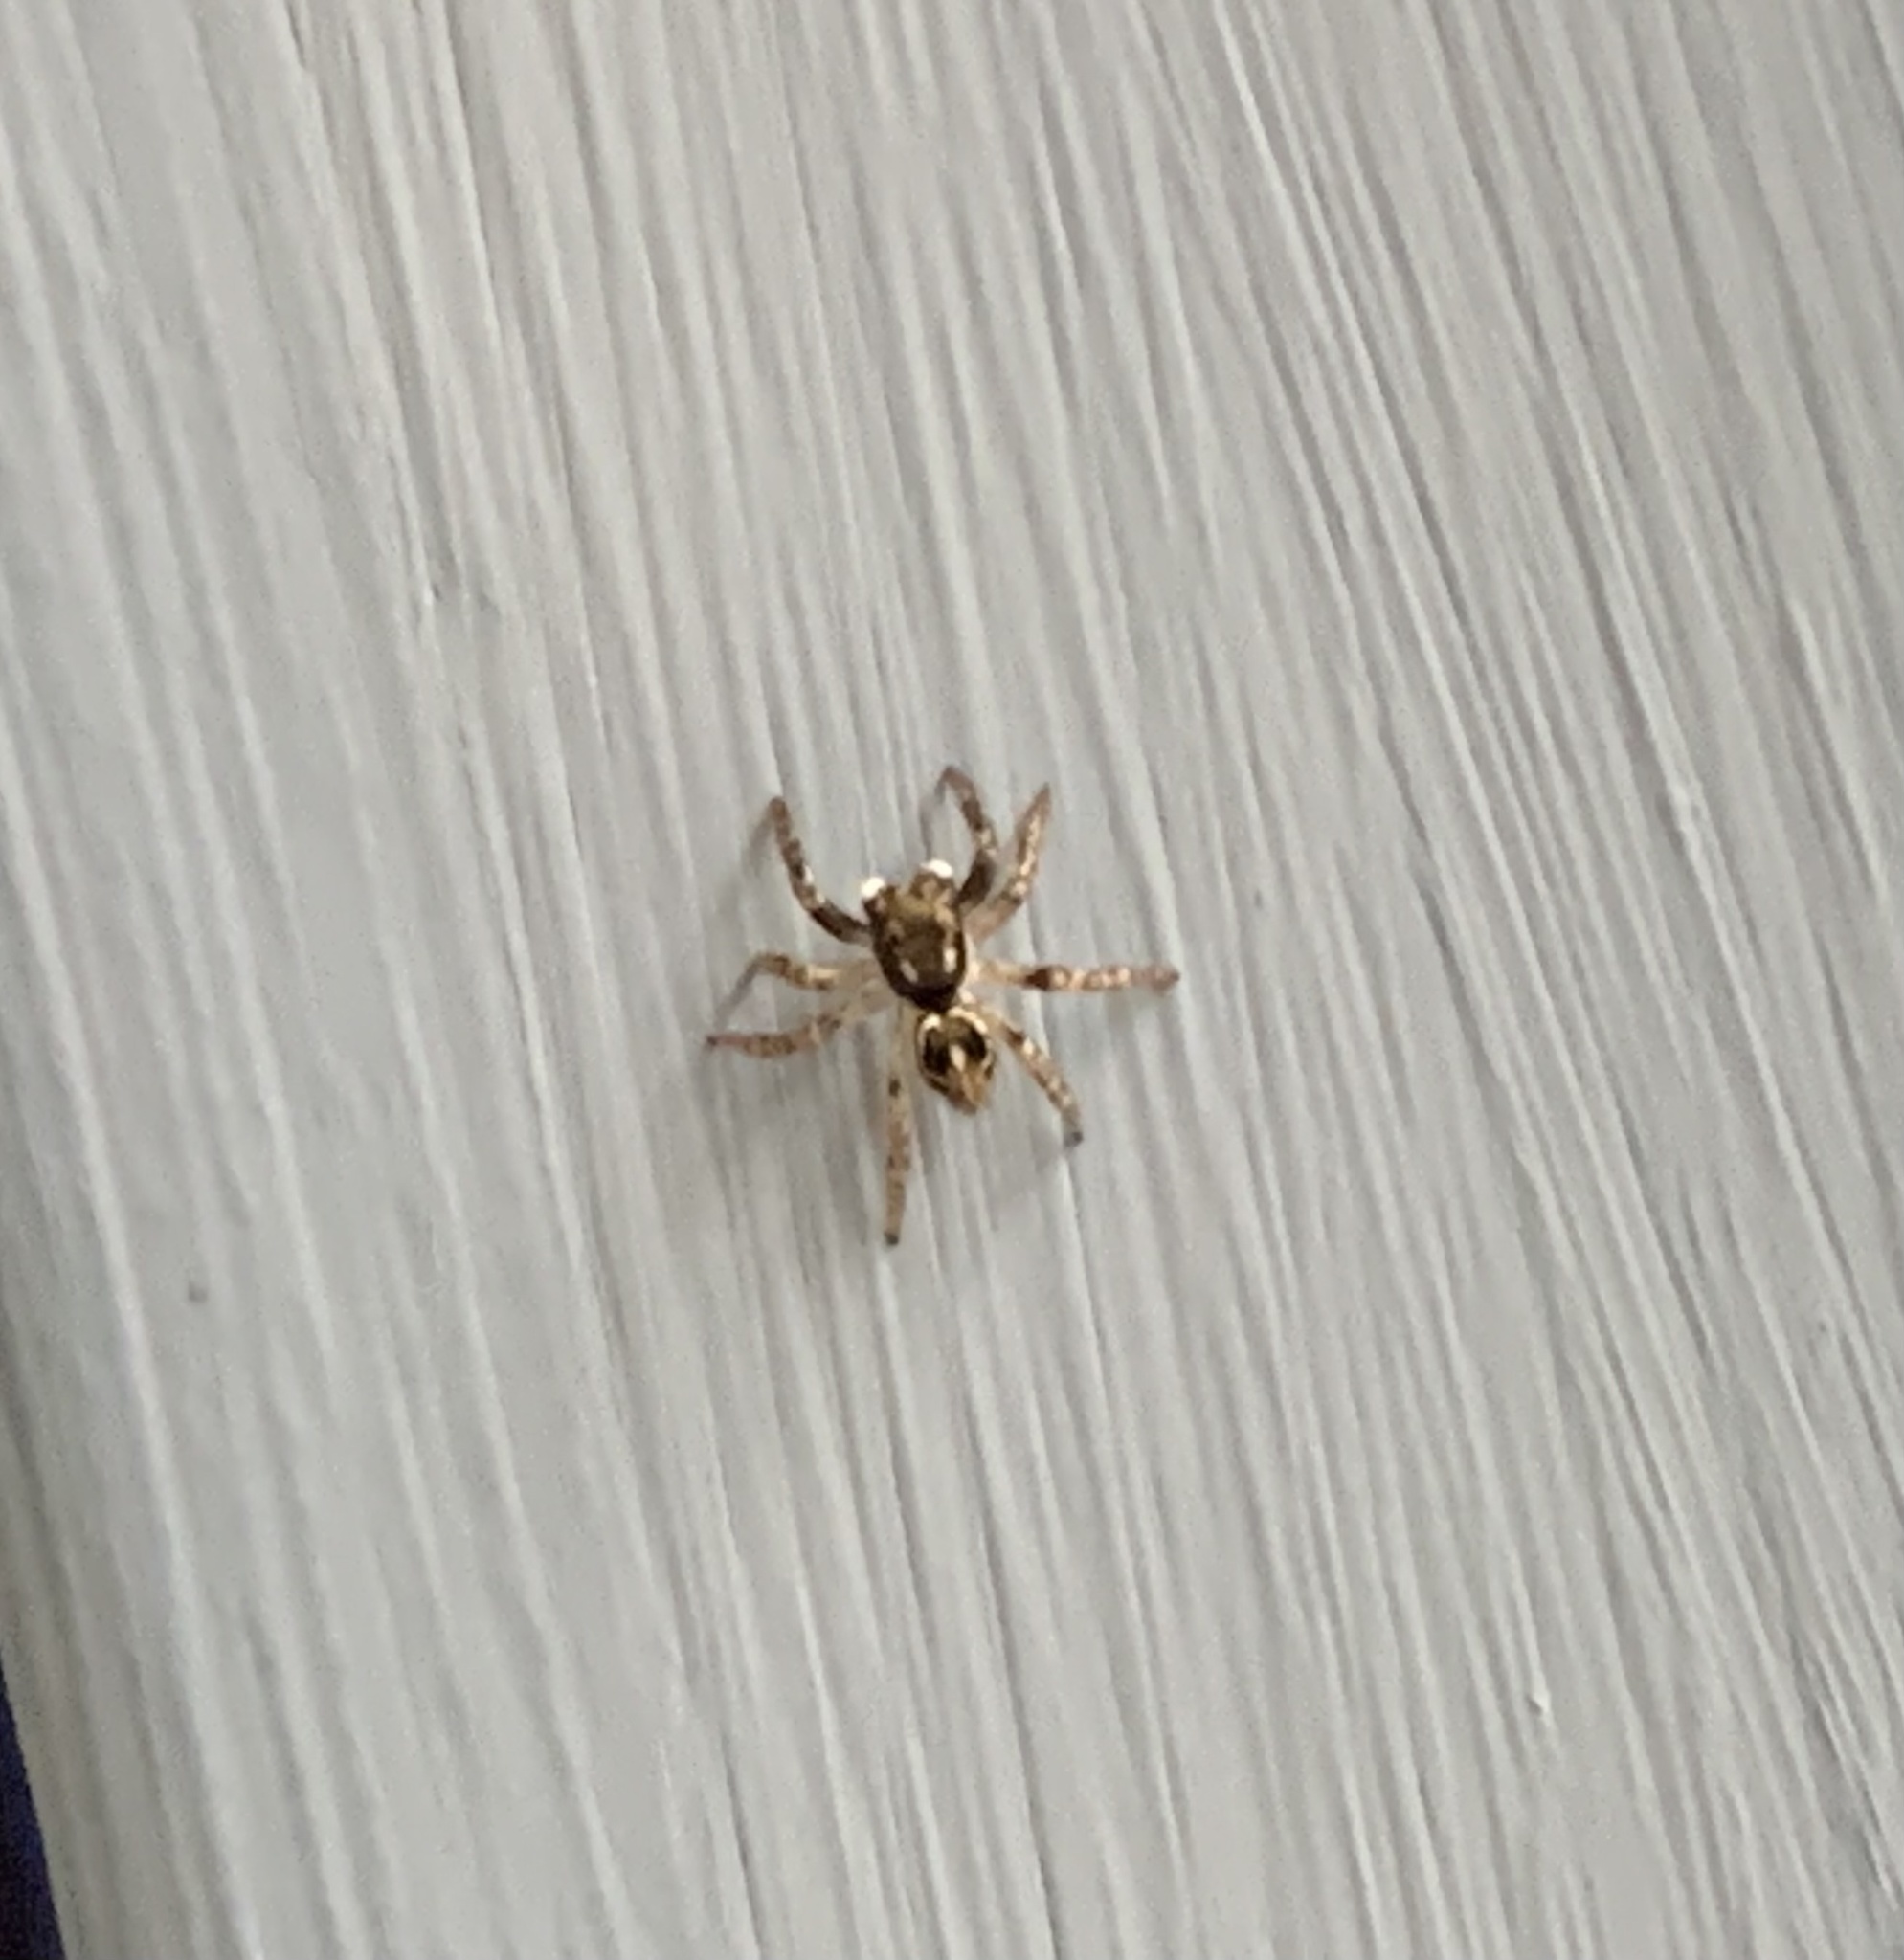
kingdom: Animalia
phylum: Arthropoda
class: Arachnida
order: Araneae
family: Salticidae
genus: Anasaitis
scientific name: Anasaitis canosa
